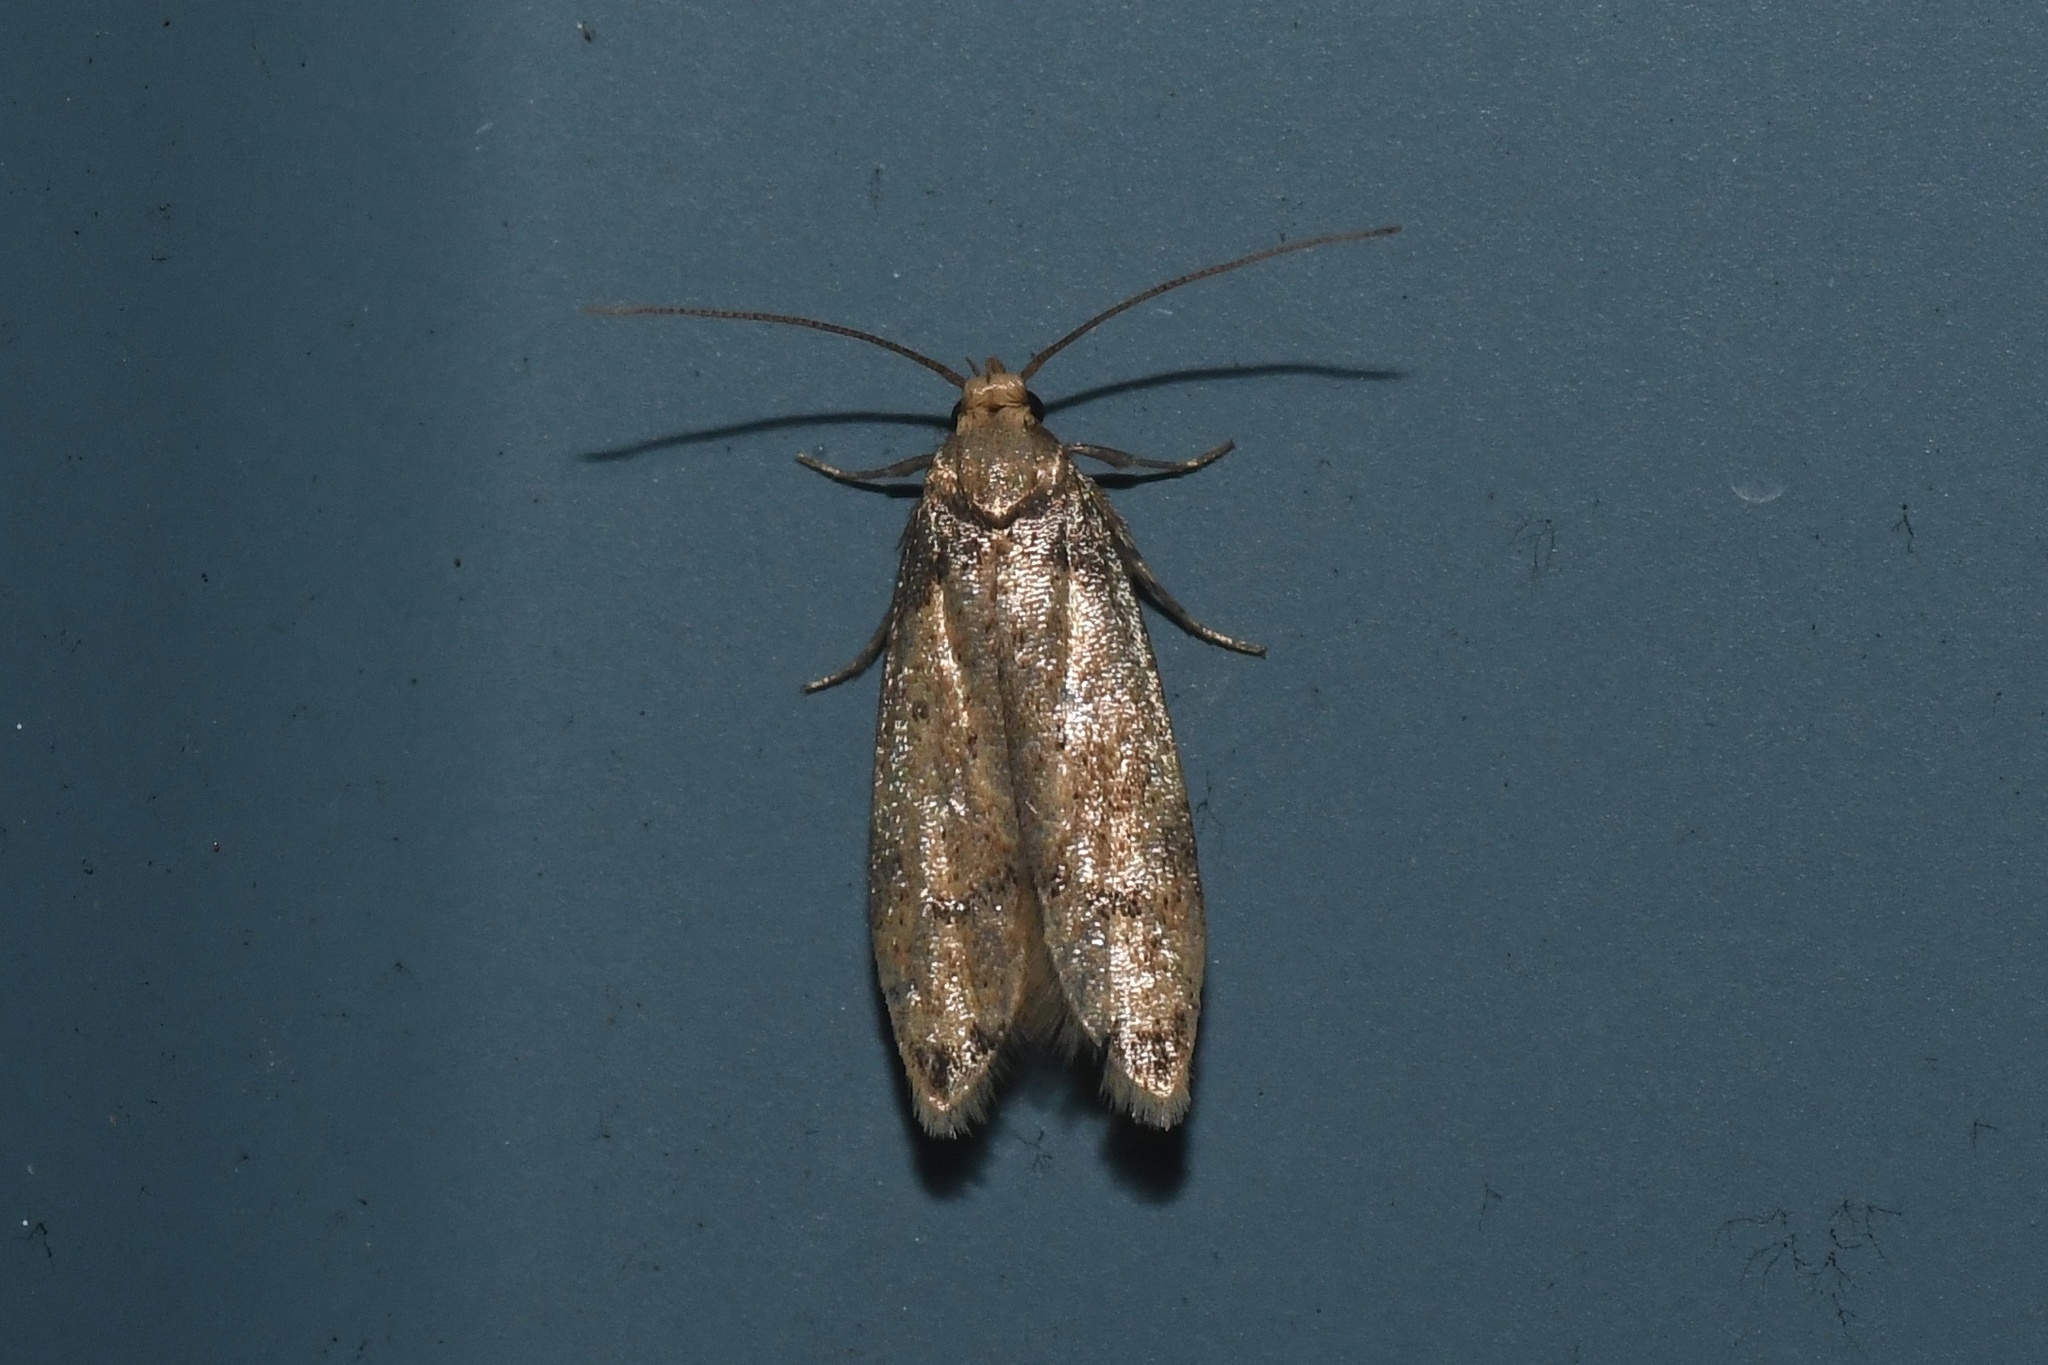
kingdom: Animalia
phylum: Arthropoda
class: Insecta
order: Lepidoptera
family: Autostichidae
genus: Gerdana
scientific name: Gerdana caritella
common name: Gerdana moth
